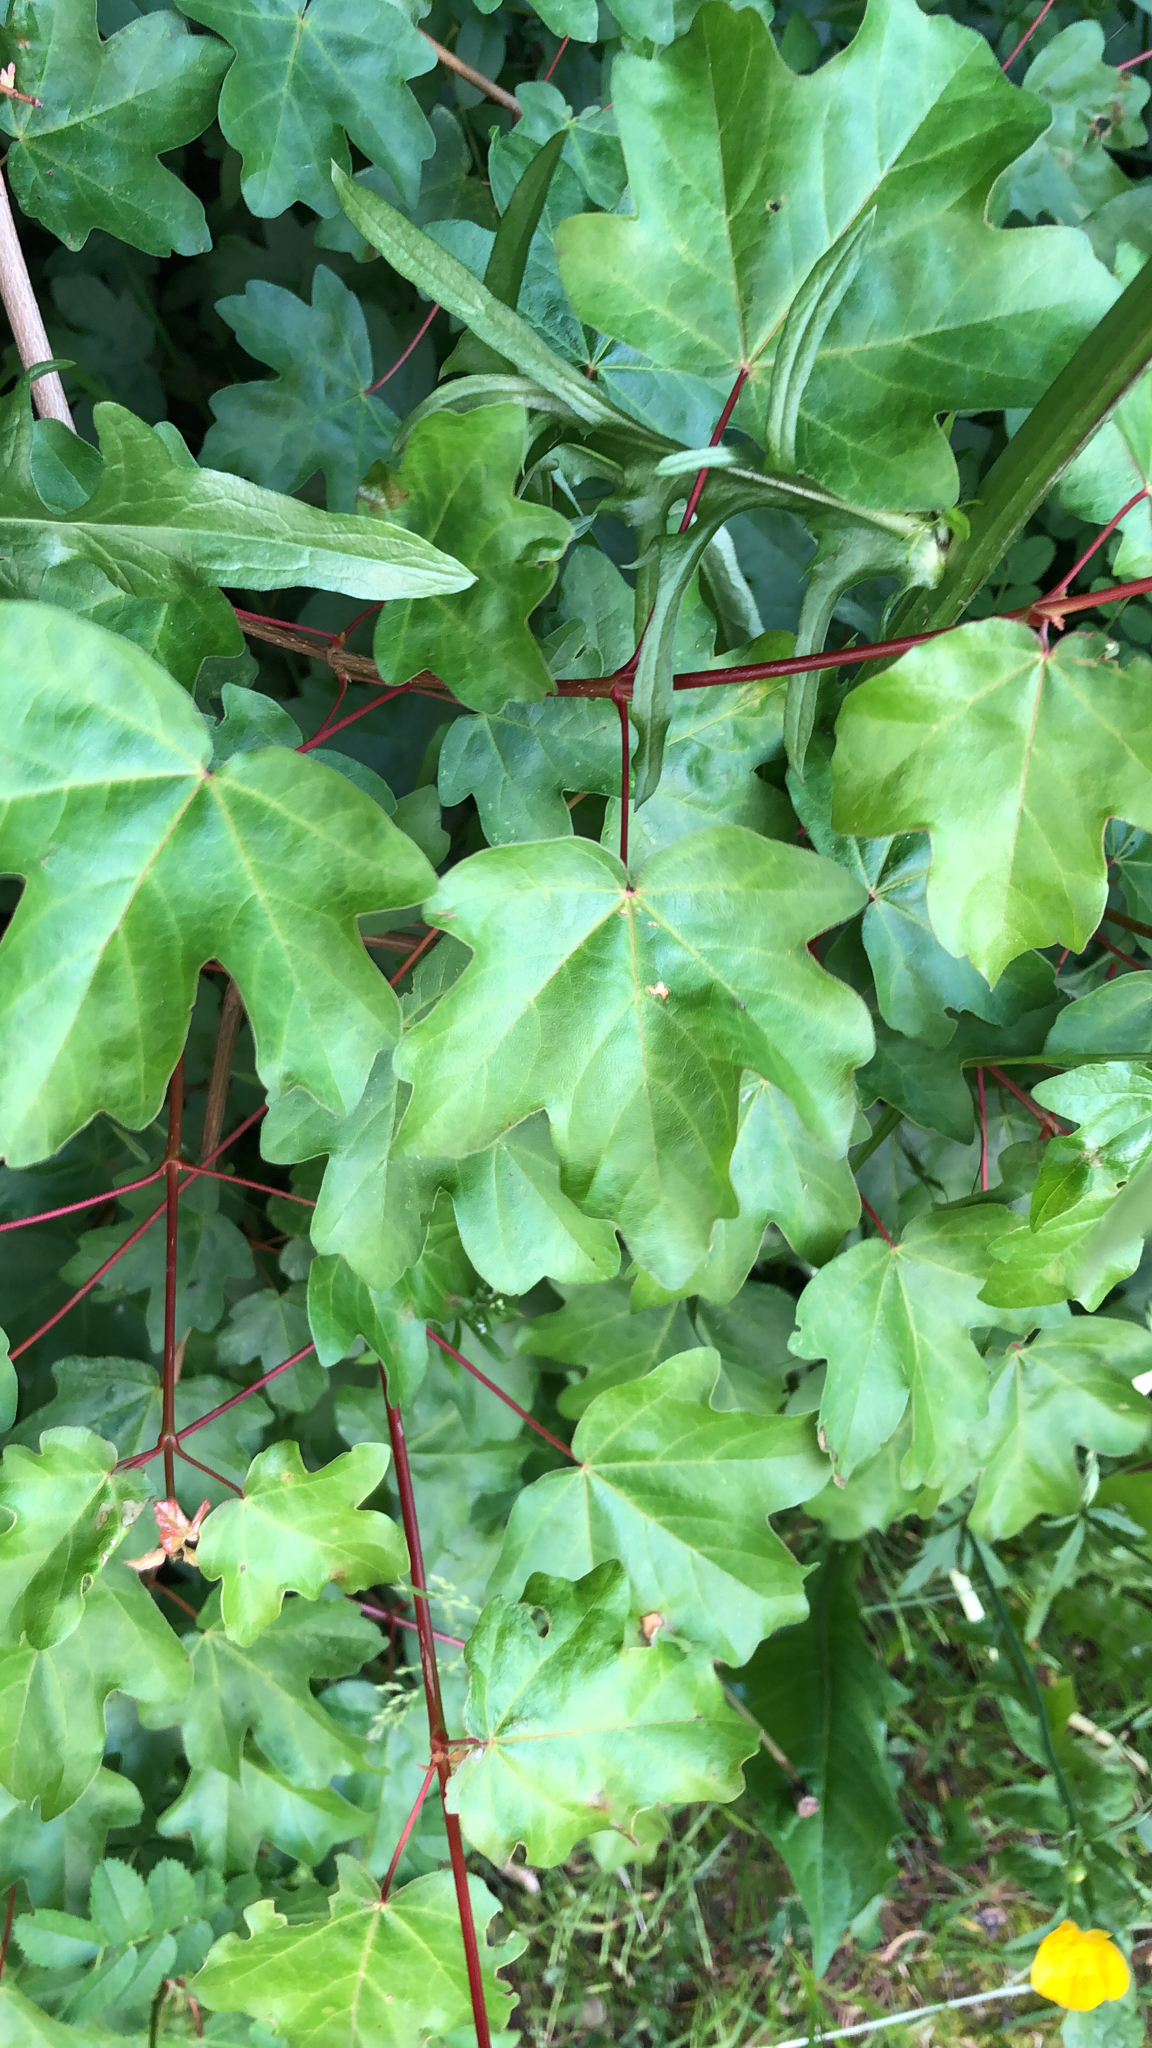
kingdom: Plantae
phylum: Tracheophyta
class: Magnoliopsida
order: Sapindales
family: Sapindaceae
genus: Acer
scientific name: Acer campestre
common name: Field maple
